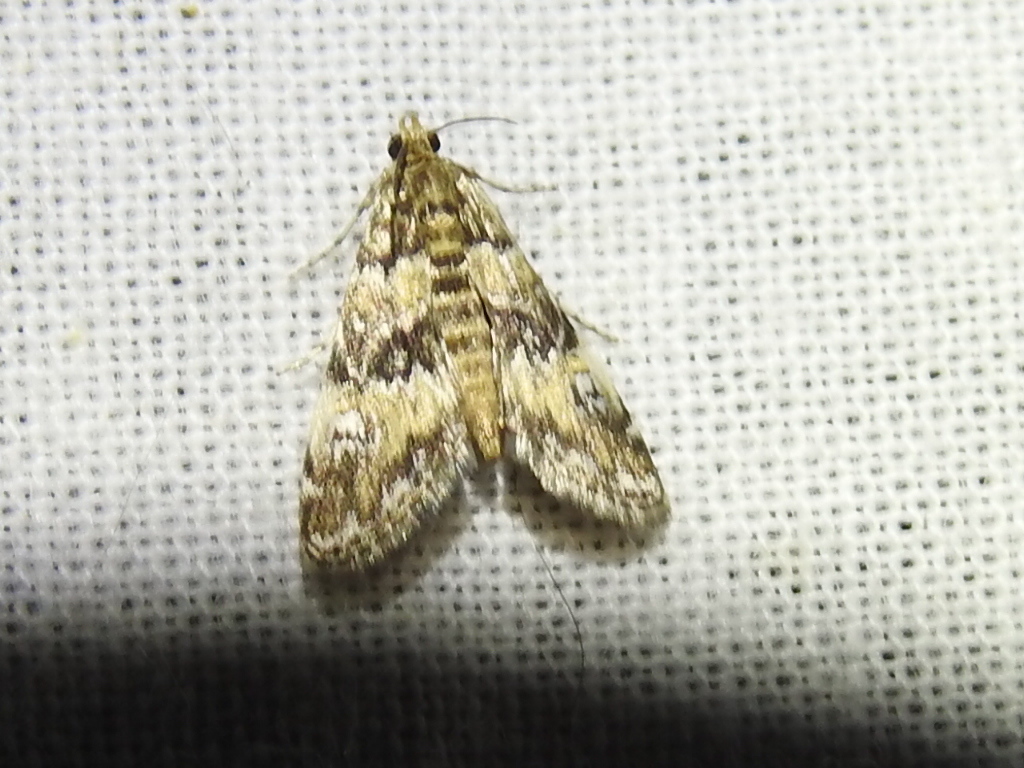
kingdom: Animalia
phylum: Arthropoda
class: Insecta
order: Lepidoptera
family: Crambidae
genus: Elophila
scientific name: Elophila obliteralis
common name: Waterlily leafcutter moth
